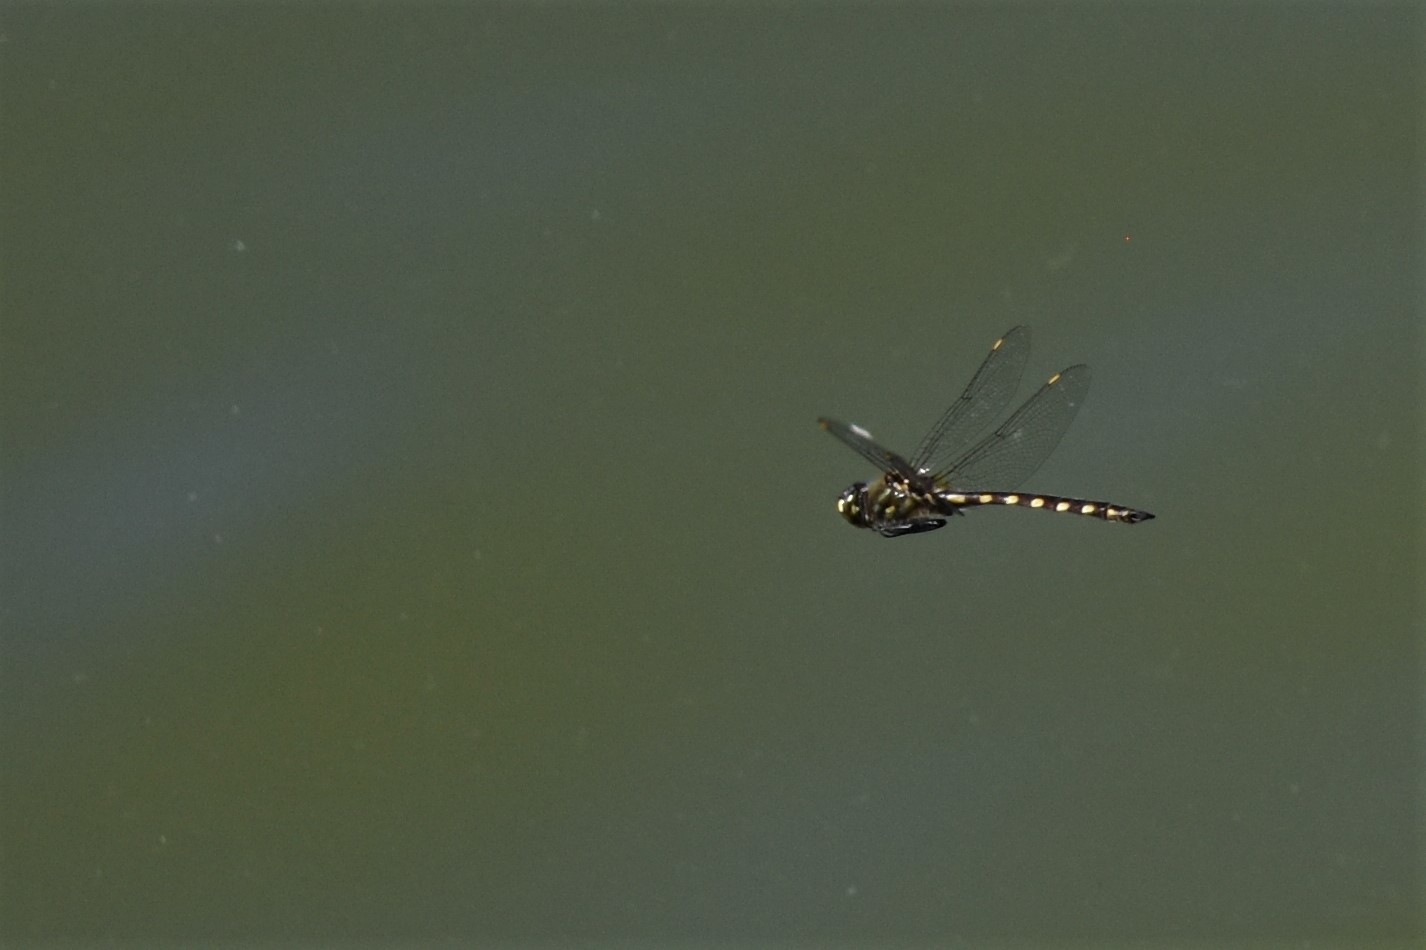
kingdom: Animalia
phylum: Arthropoda
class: Insecta
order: Odonata
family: Corduliidae
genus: Procordulia
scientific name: Procordulia grayi
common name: Yellow spotted dragonfly
